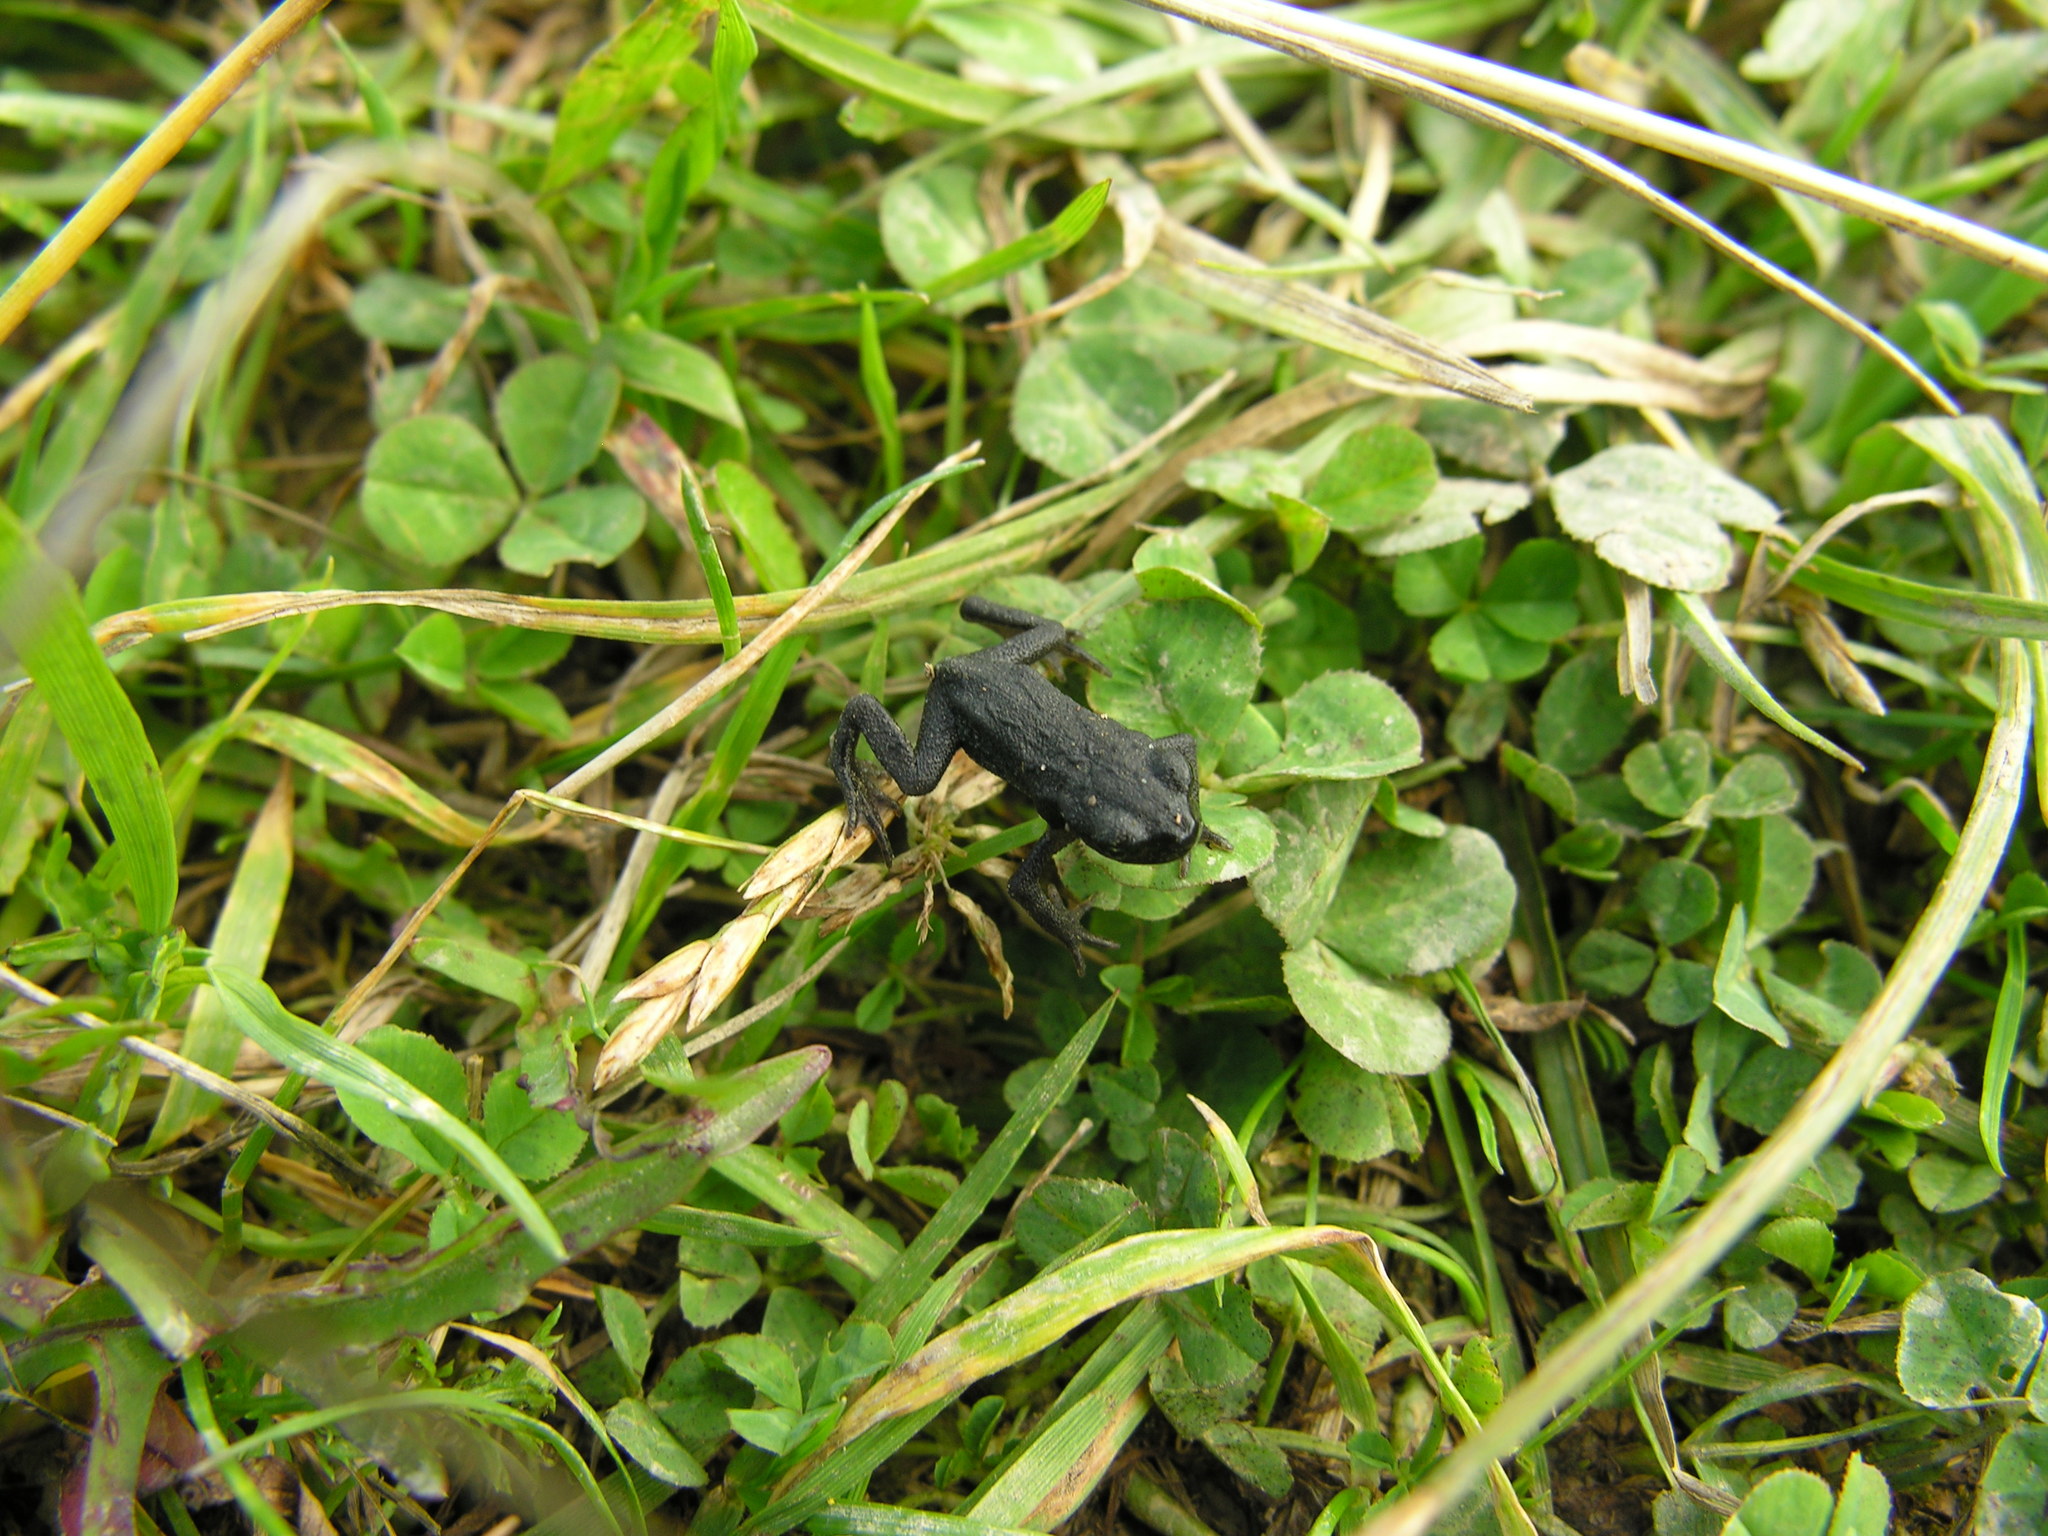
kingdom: Animalia
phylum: Chordata
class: Amphibia
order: Anura
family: Bufonidae
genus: Bufo
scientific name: Bufo bufo
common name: Common toad
